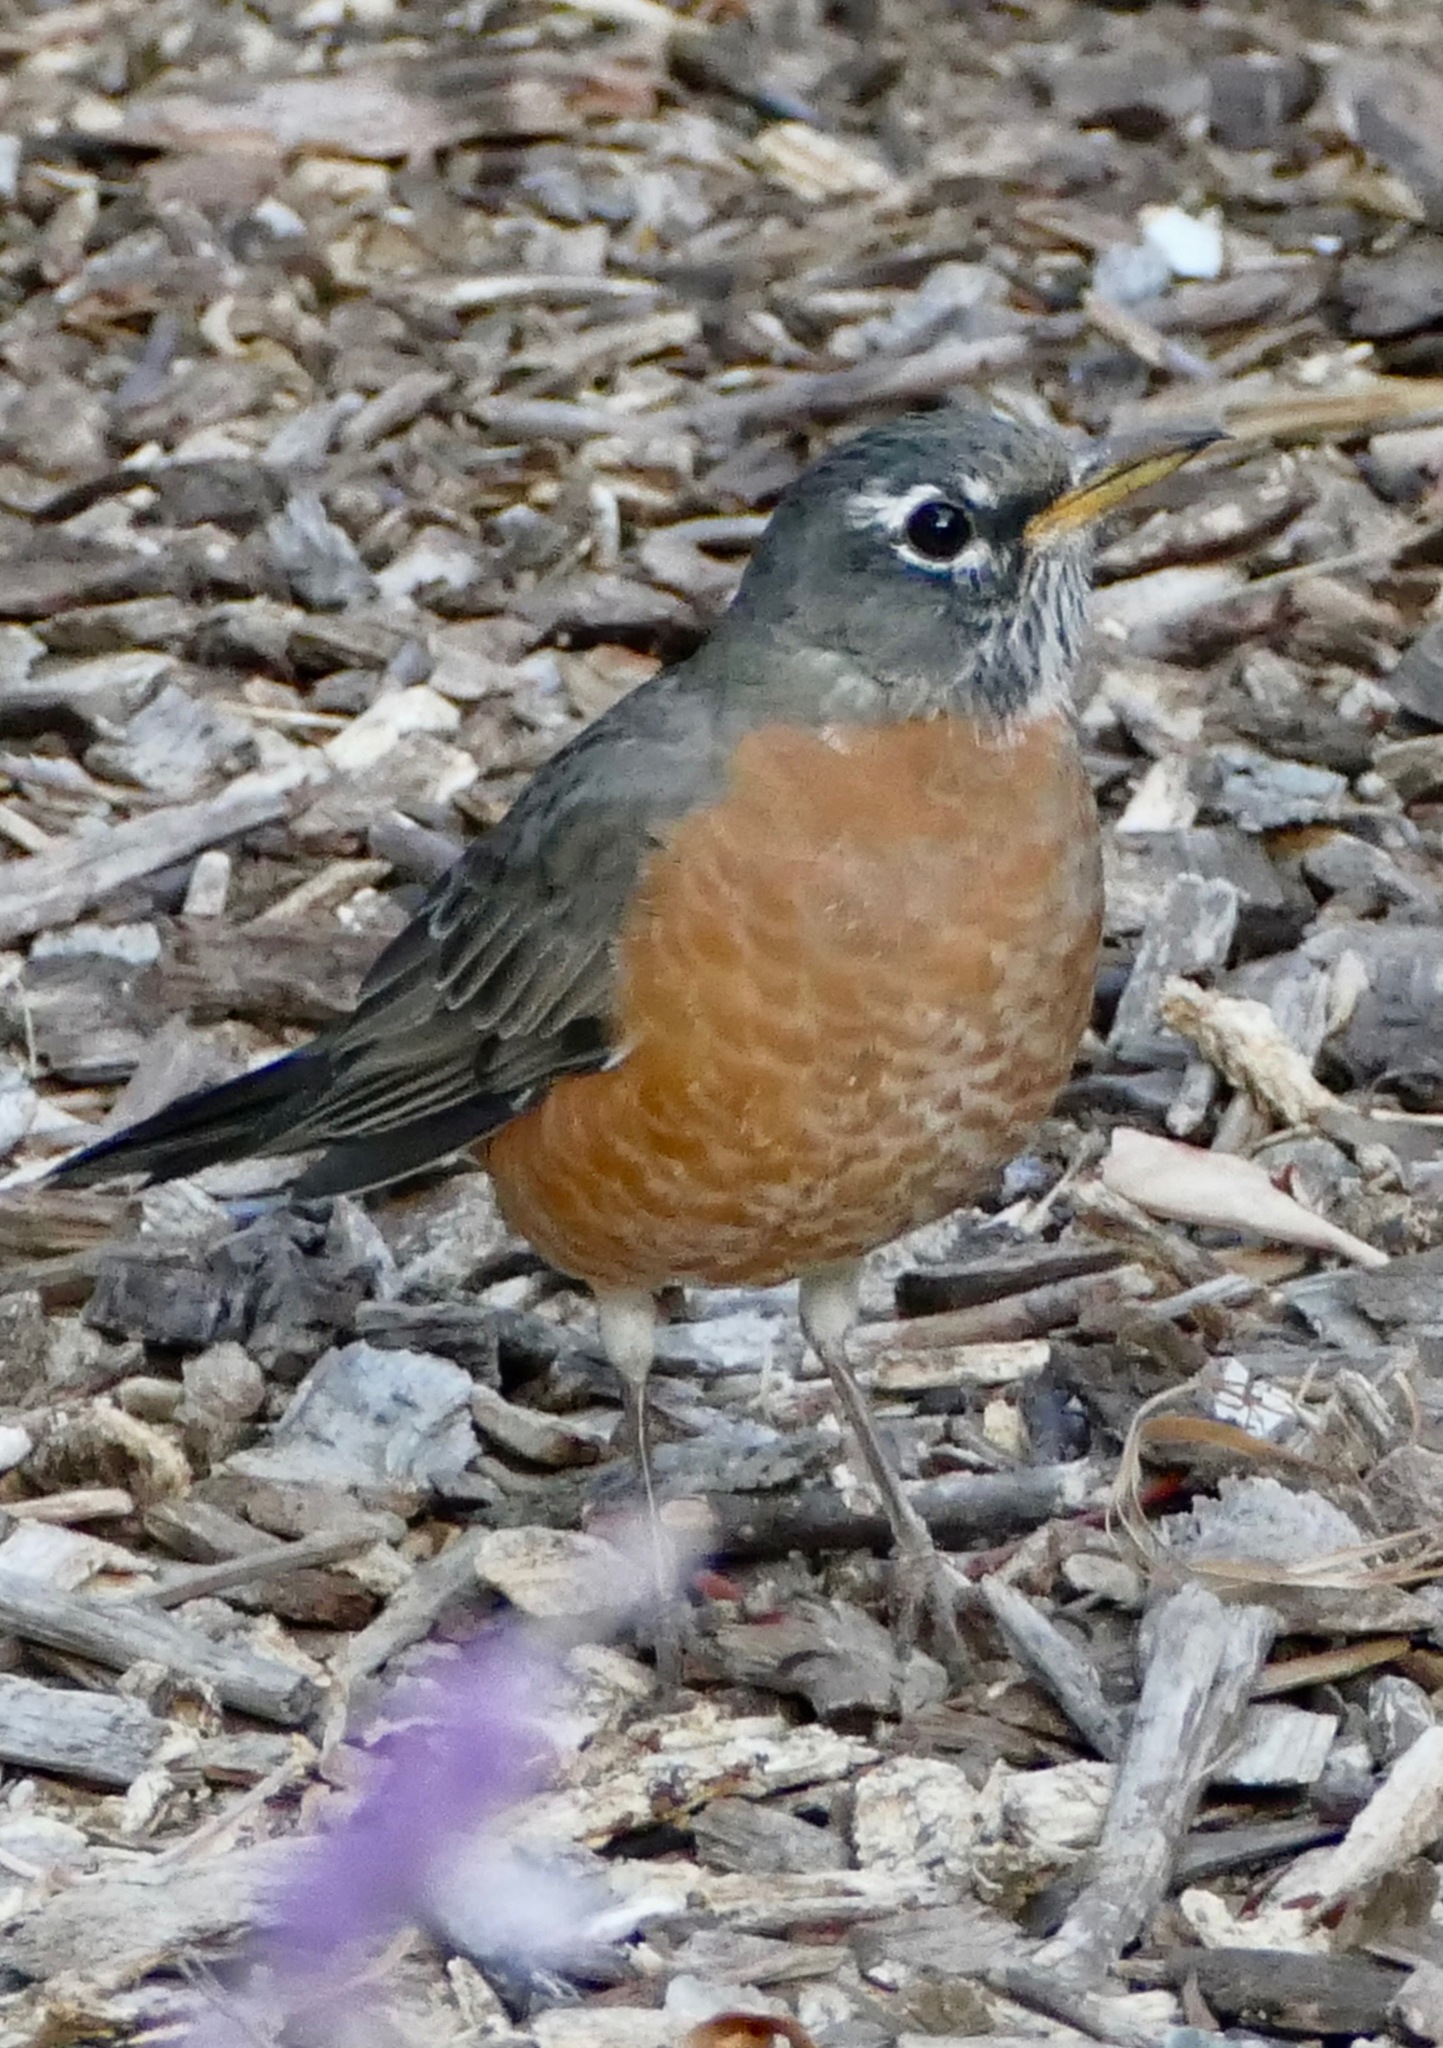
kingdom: Animalia
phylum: Chordata
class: Aves
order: Passeriformes
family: Turdidae
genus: Turdus
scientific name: Turdus migratorius
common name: American robin
